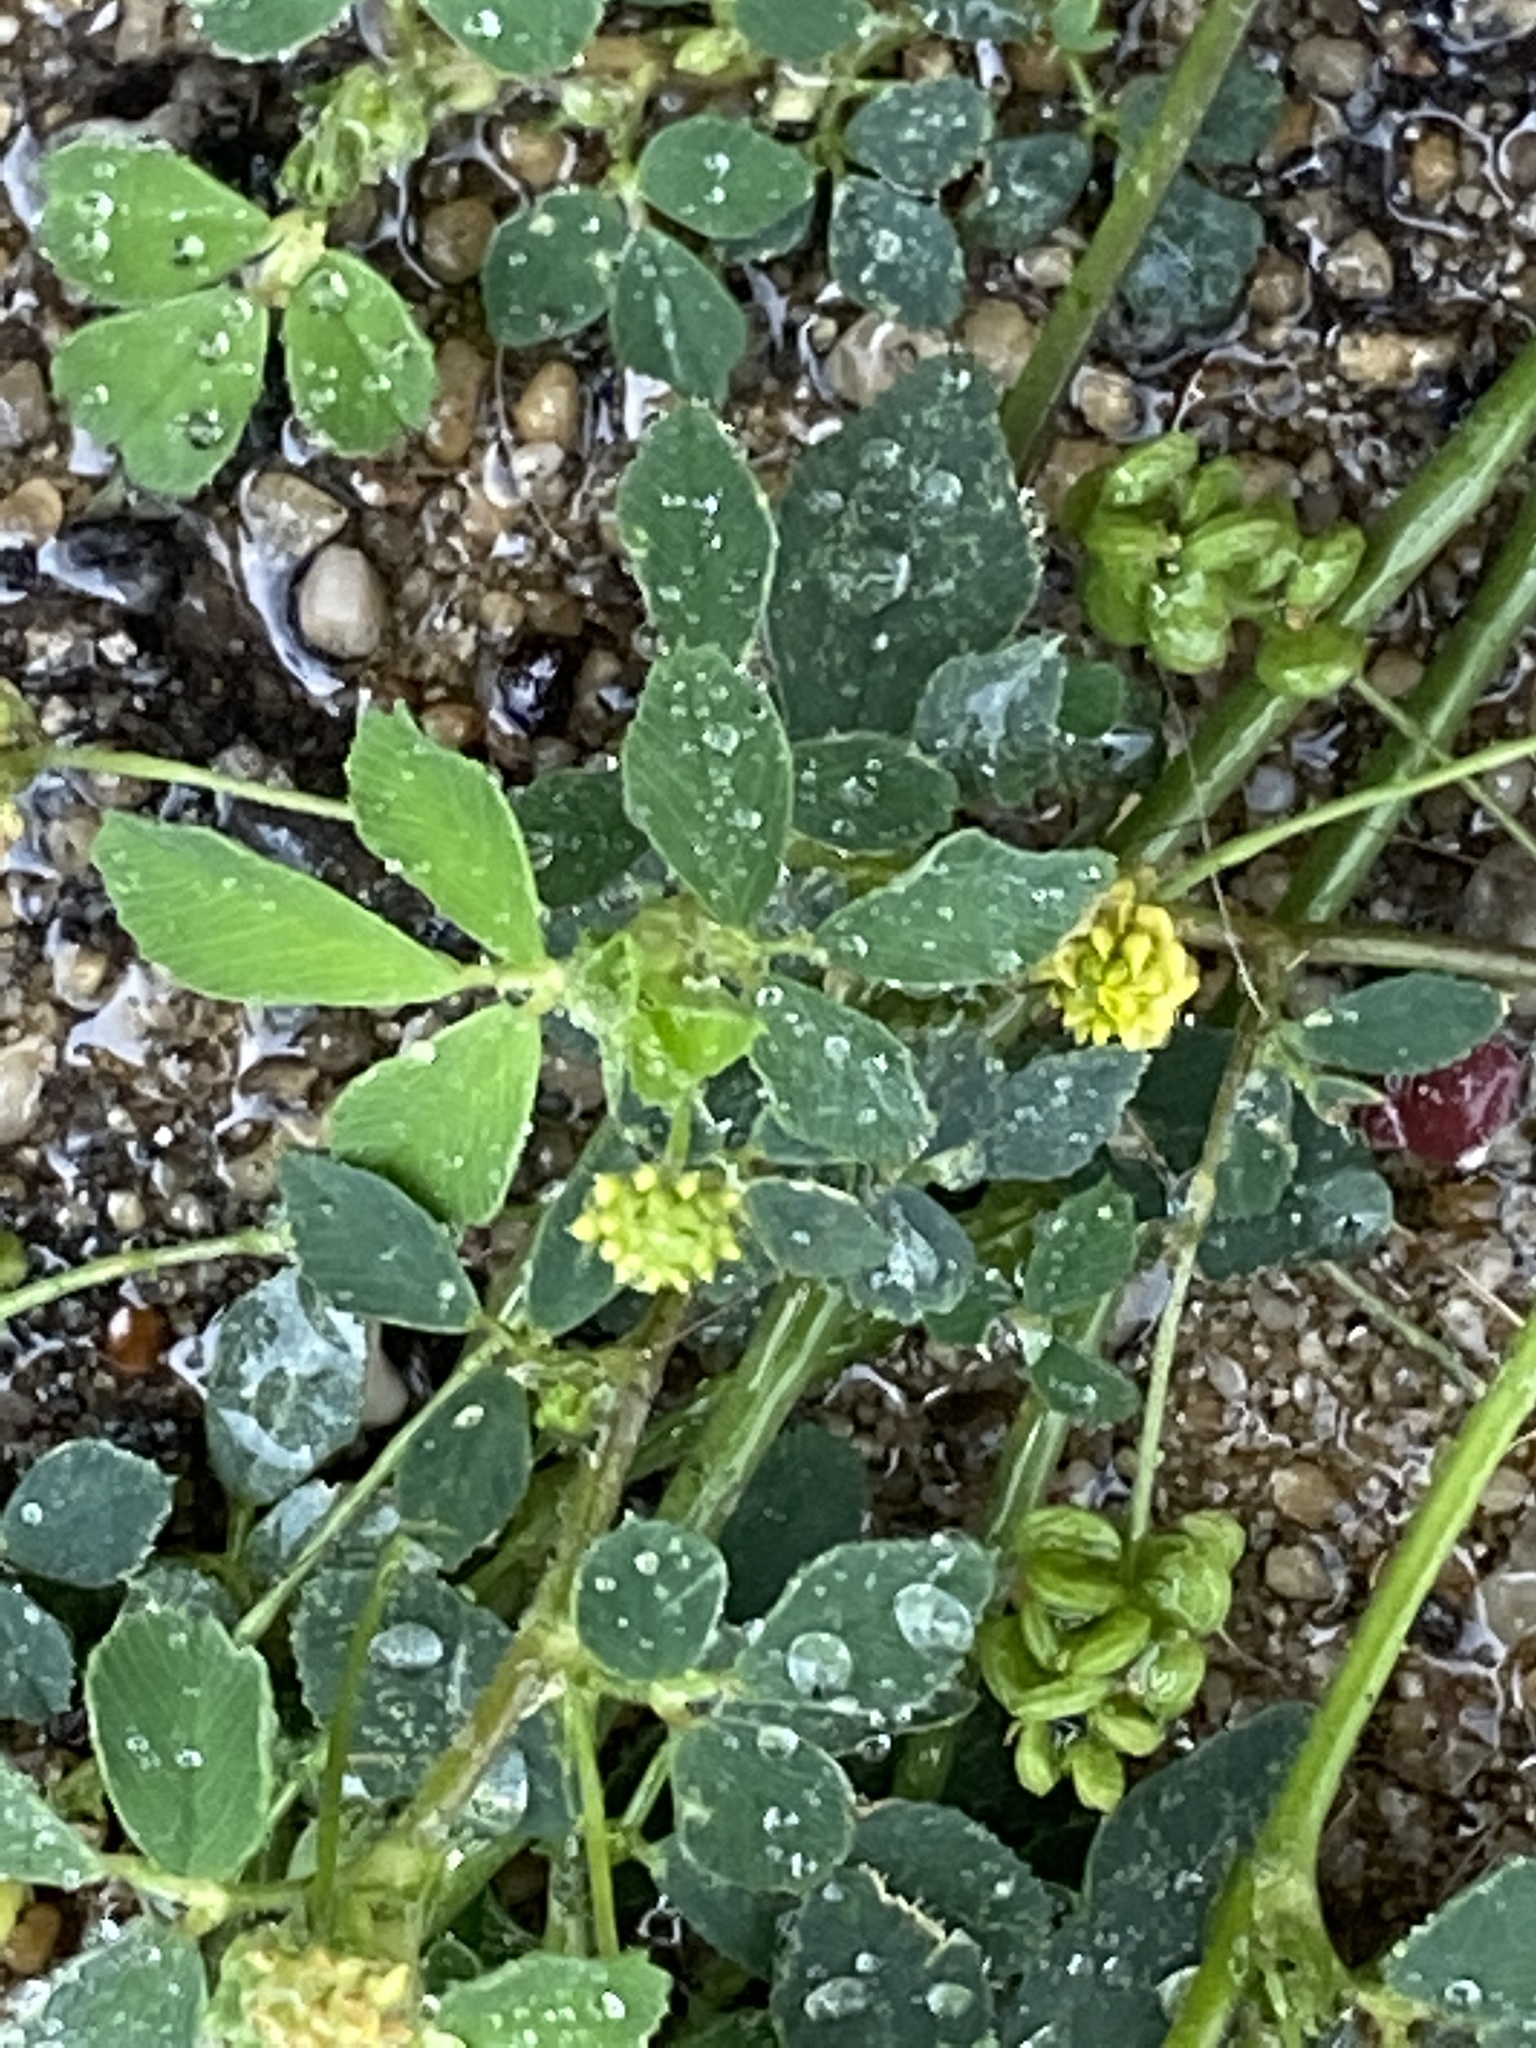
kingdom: Plantae
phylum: Tracheophyta
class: Magnoliopsida
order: Fabales
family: Fabaceae
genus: Medicago
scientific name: Medicago lupulina
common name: Black medick
